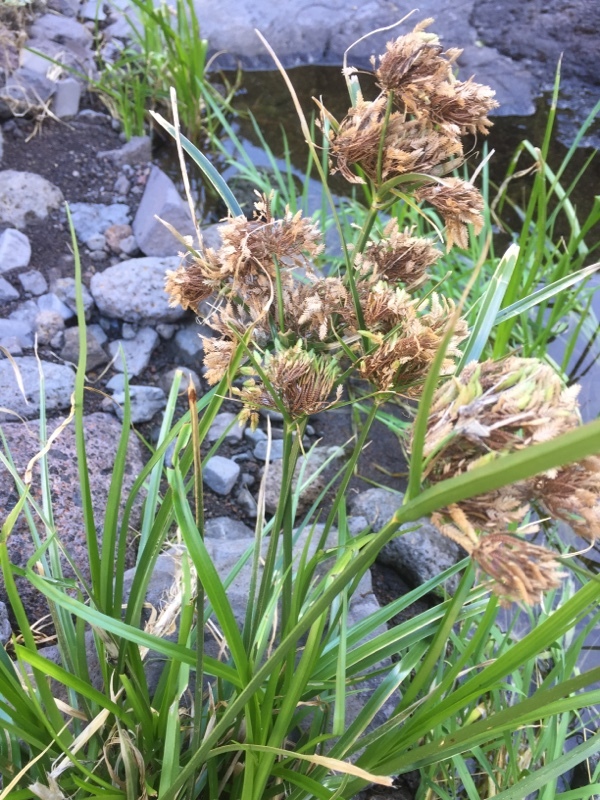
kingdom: Plantae
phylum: Tracheophyta
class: Liliopsida
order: Poales
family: Cyperaceae
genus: Cyperus
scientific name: Cyperus eragrostis
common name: Tall flatsedge
